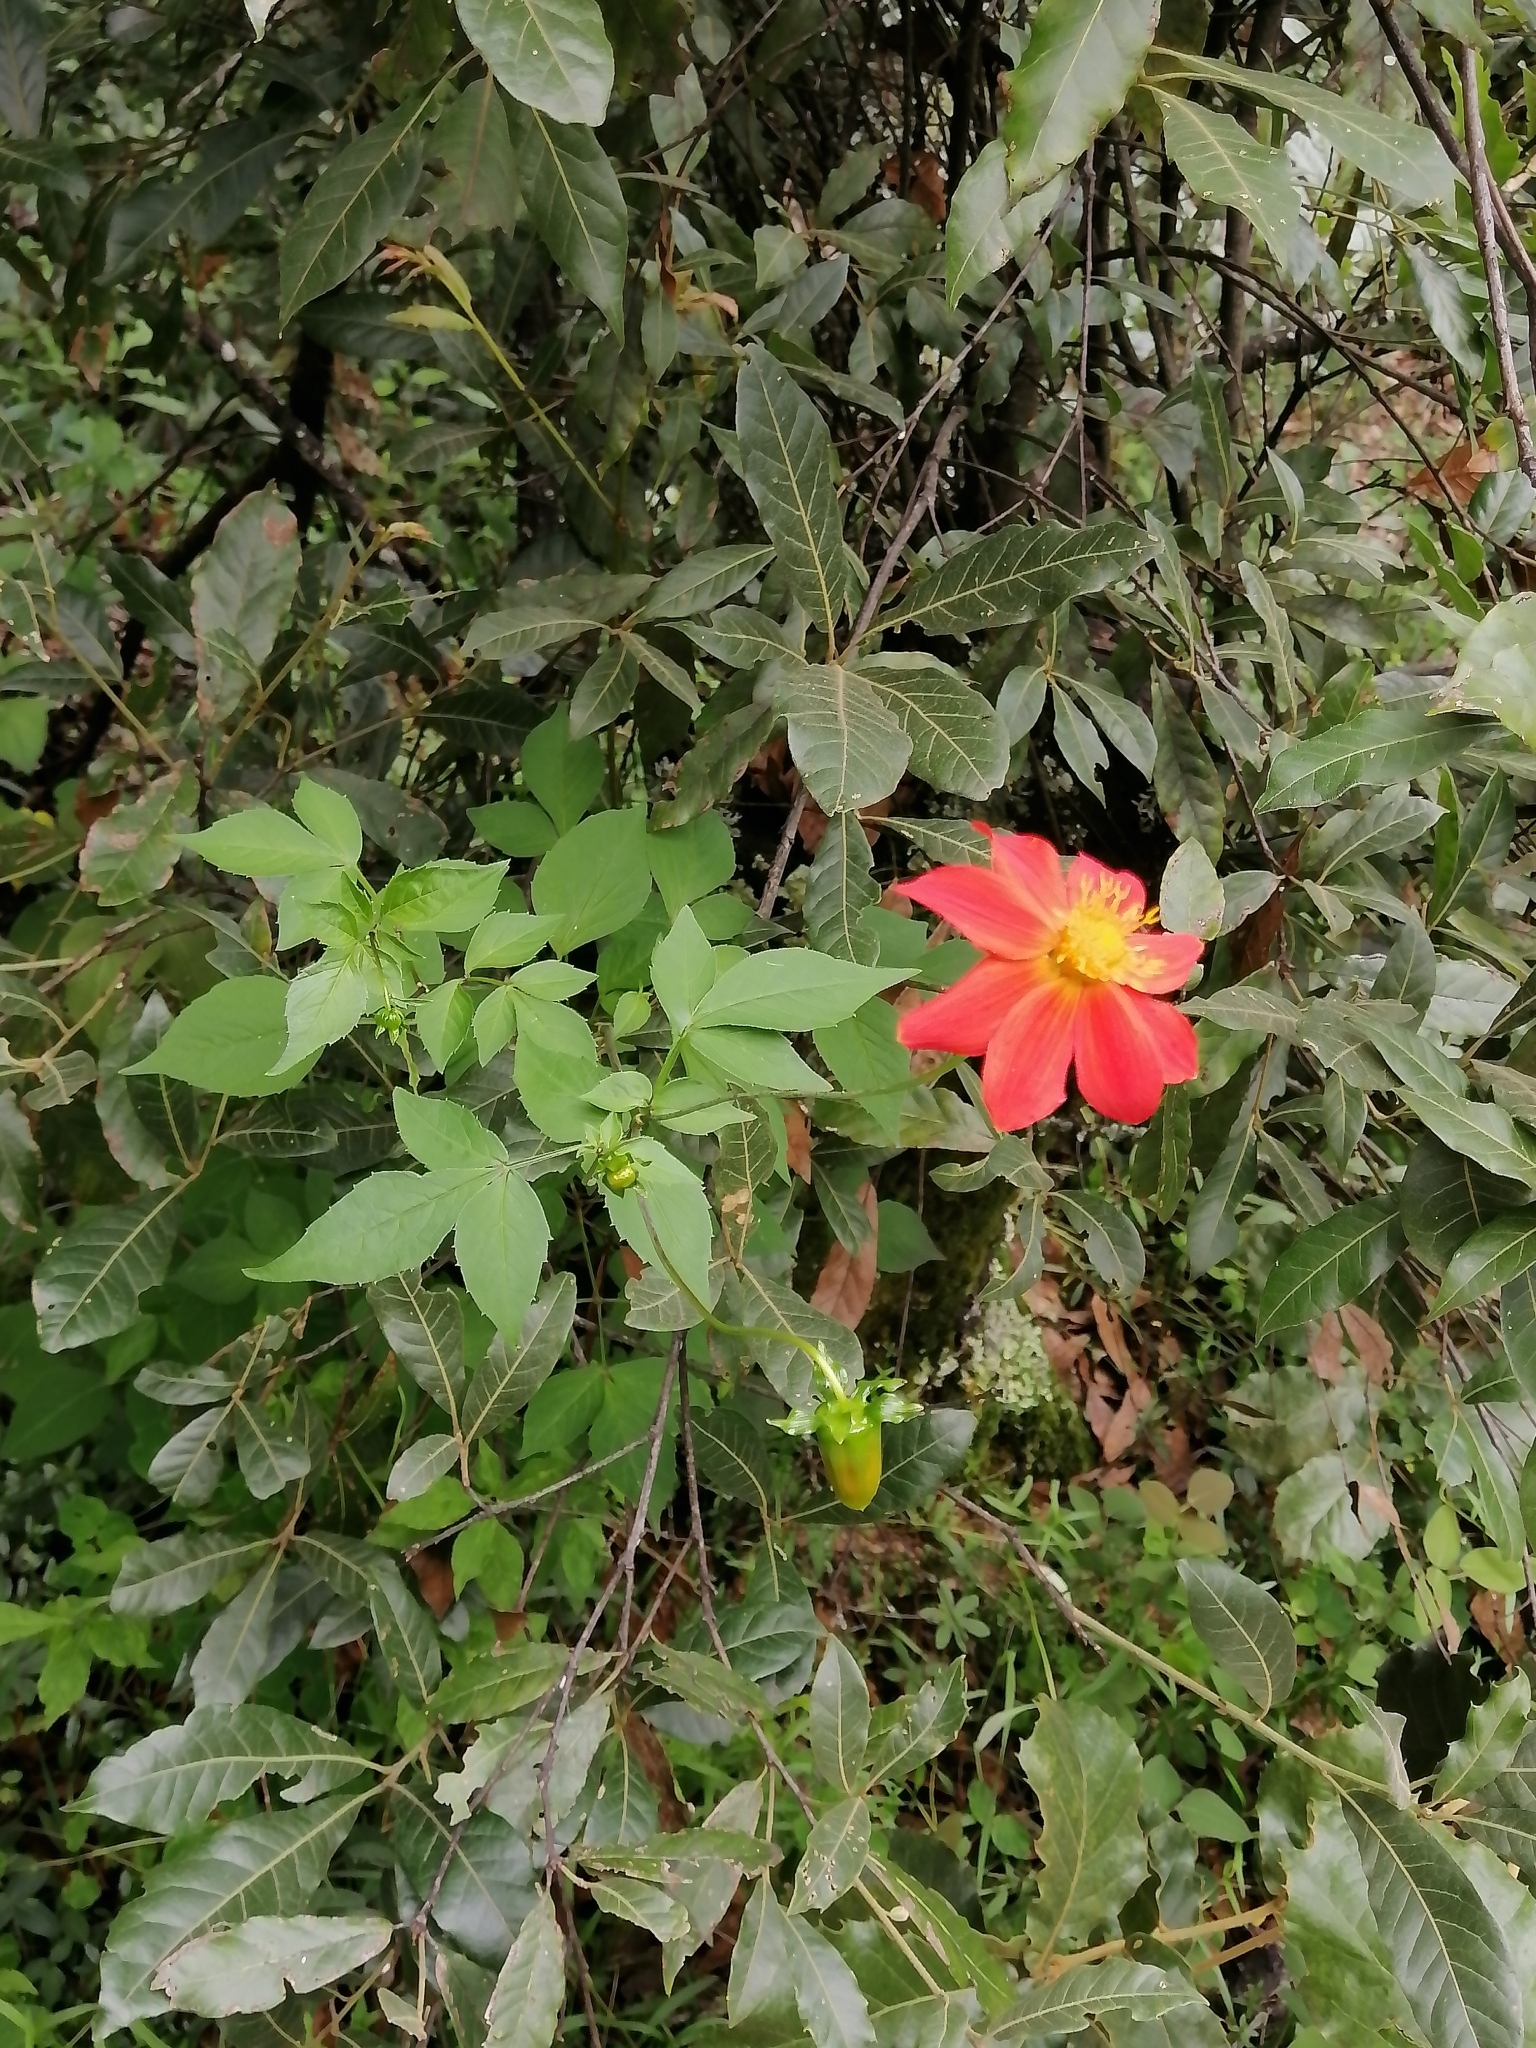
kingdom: Plantae
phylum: Tracheophyta
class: Magnoliopsida
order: Asterales
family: Asteraceae
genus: Dahlia
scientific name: Dahlia coccinea
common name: Red dahlia
